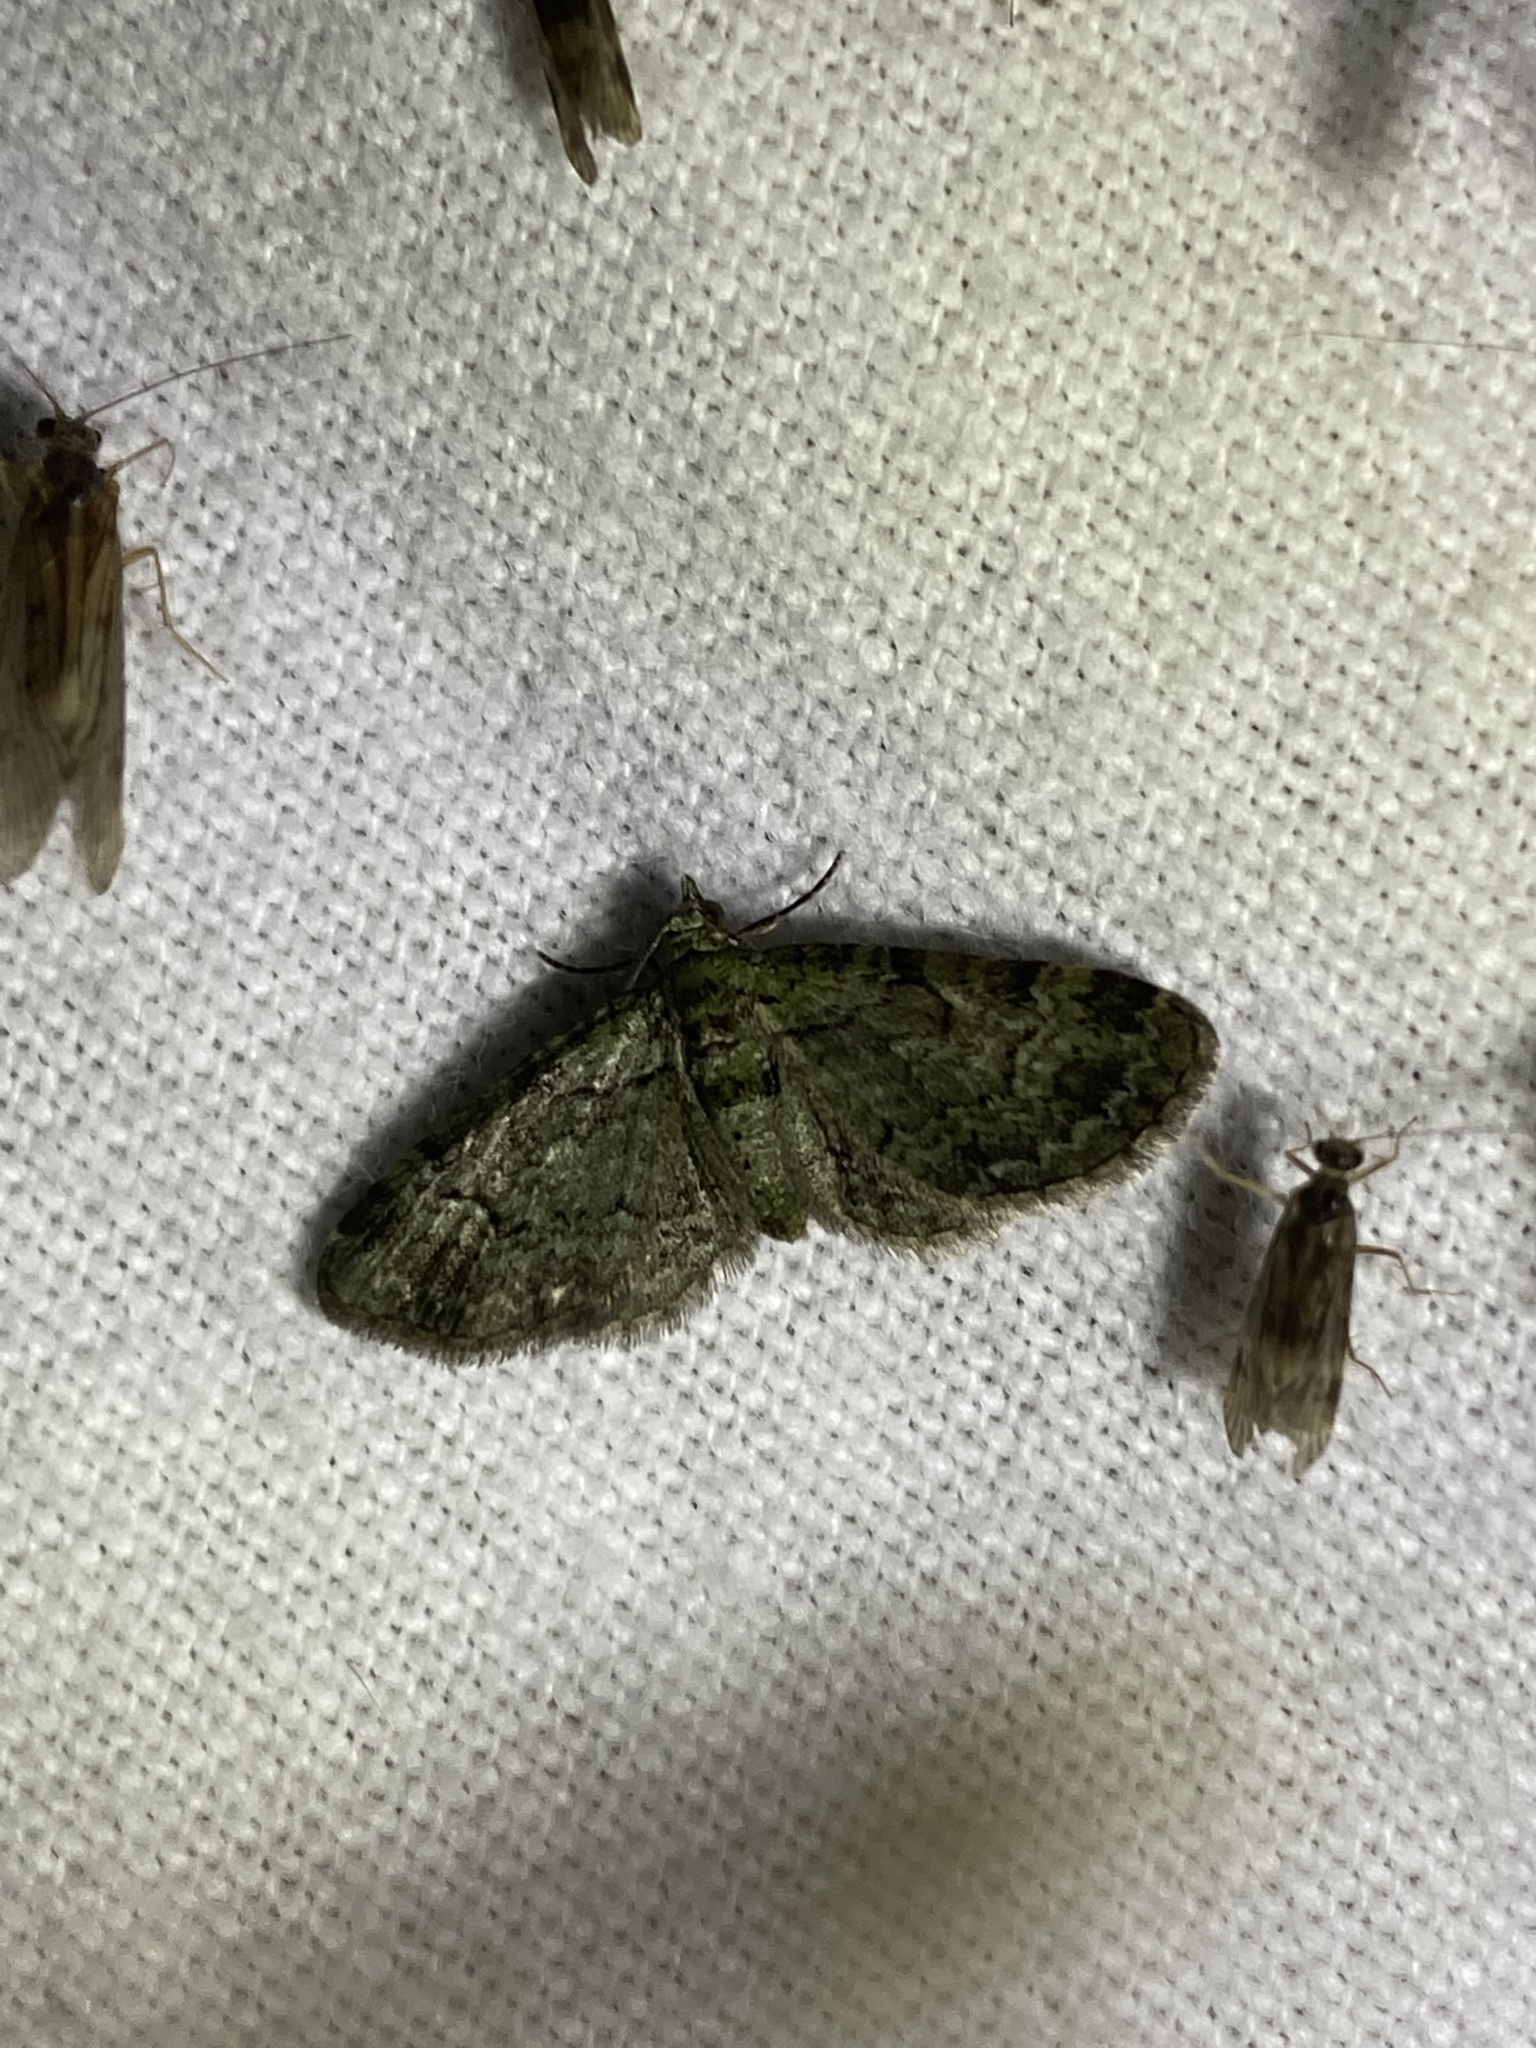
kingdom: Animalia
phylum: Arthropoda
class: Insecta
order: Lepidoptera
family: Geometridae
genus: Pasiphila
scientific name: Pasiphila rectangulata
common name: Green pug
